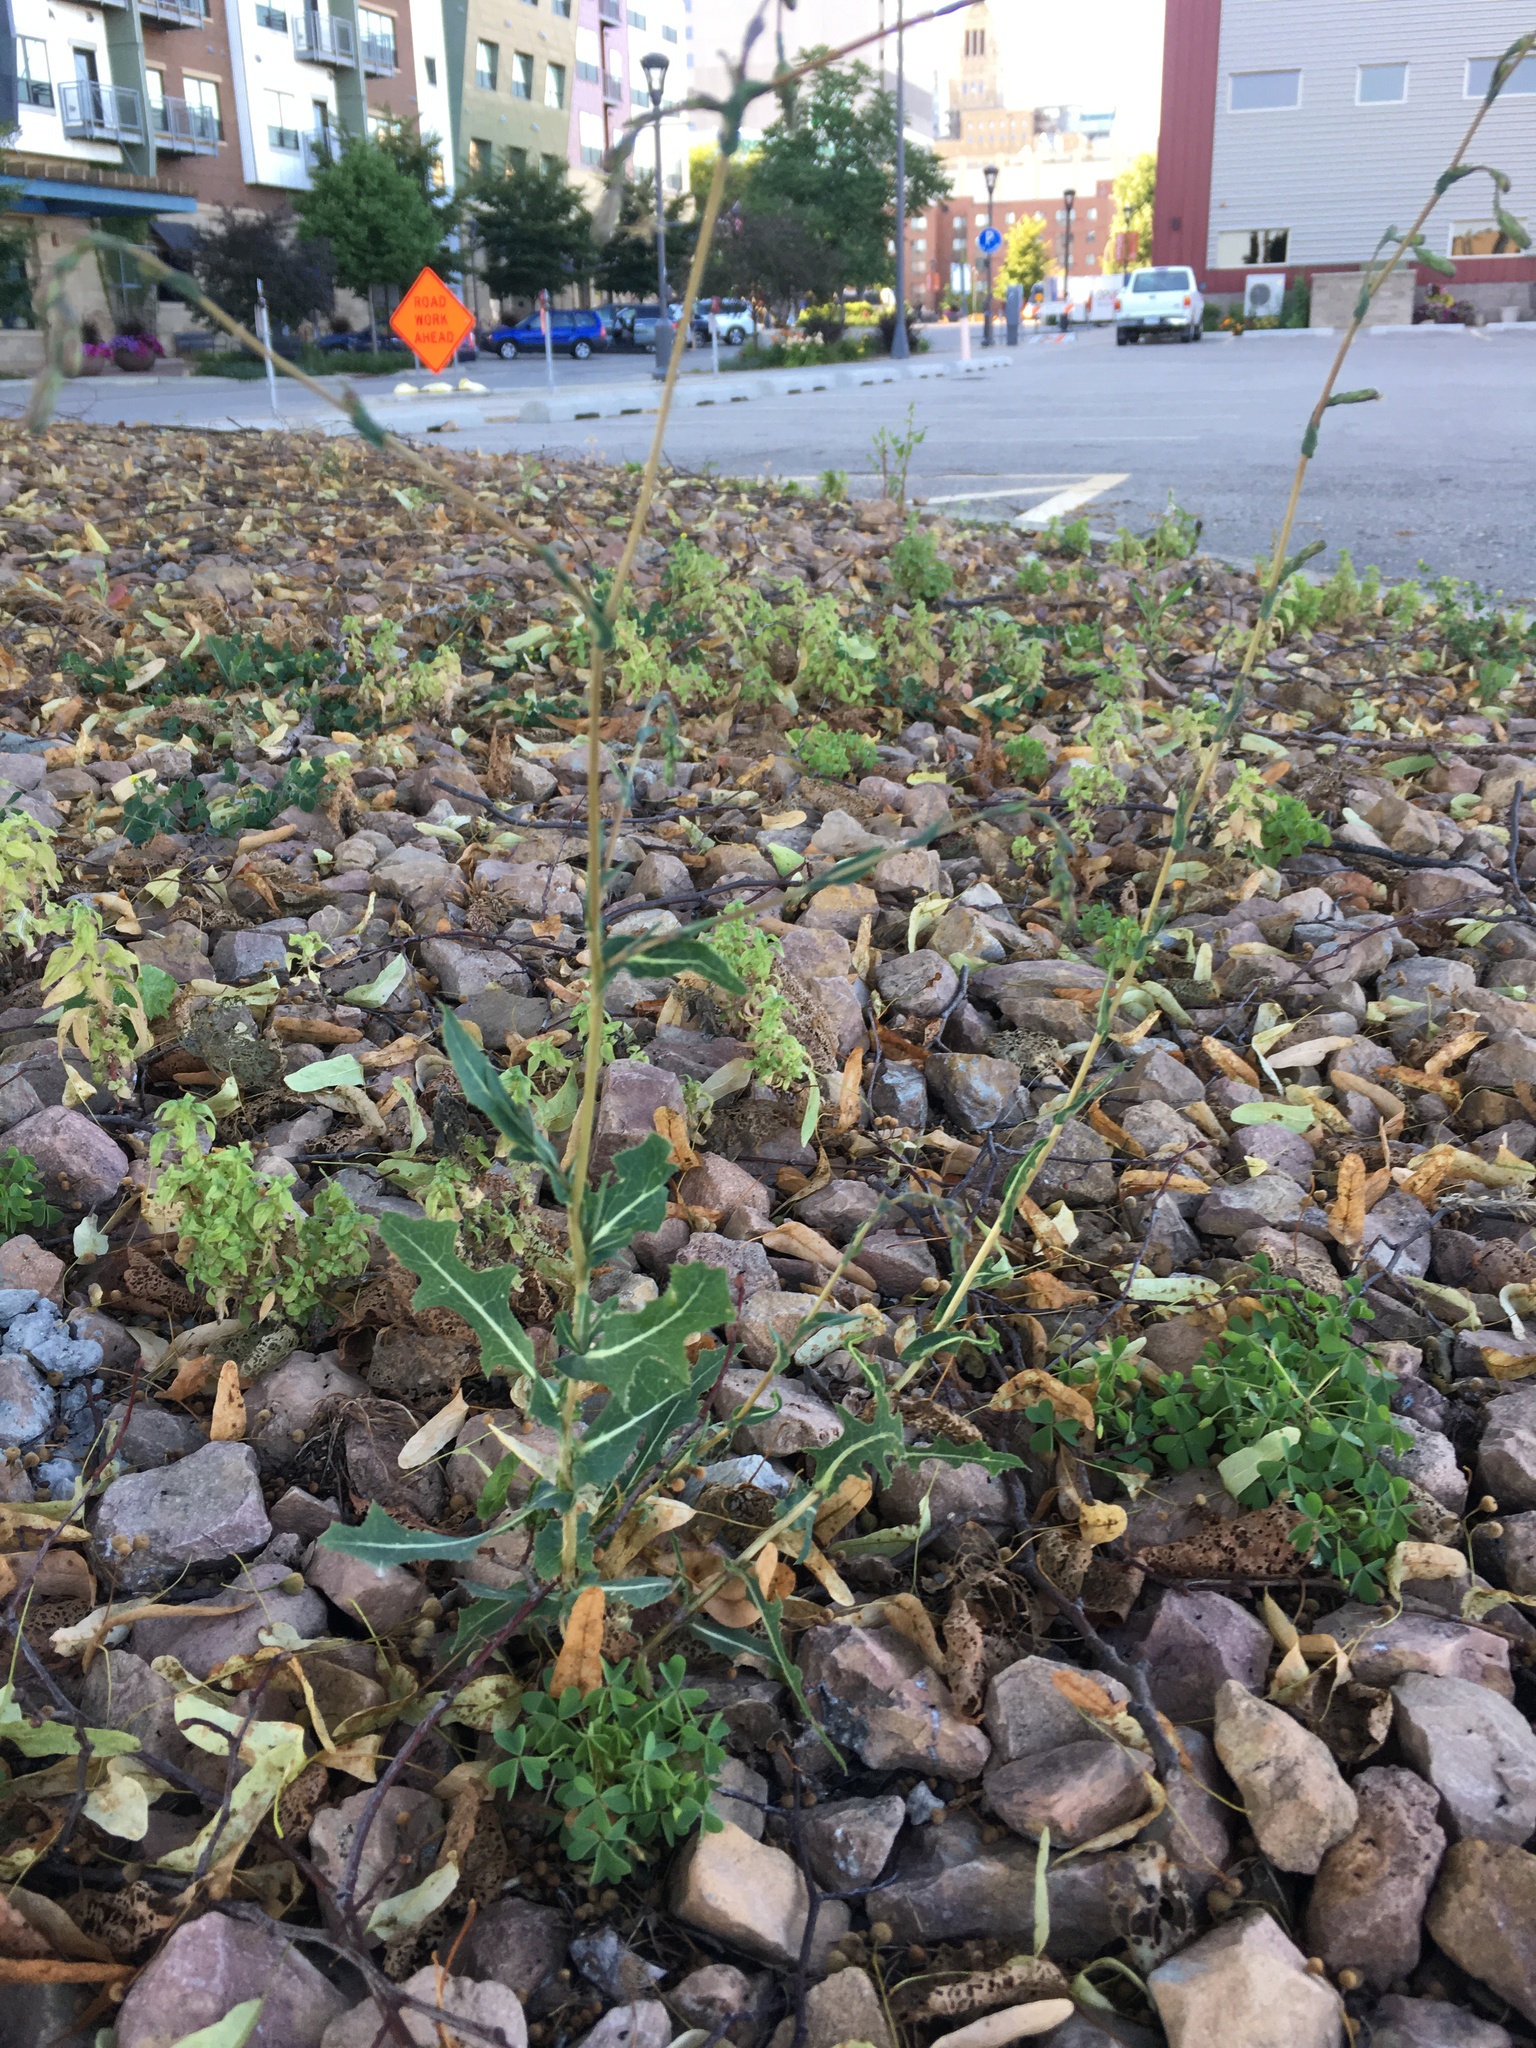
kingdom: Plantae
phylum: Tracheophyta
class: Magnoliopsida
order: Asterales
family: Asteraceae
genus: Lactuca
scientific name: Lactuca serriola
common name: Prickly lettuce
